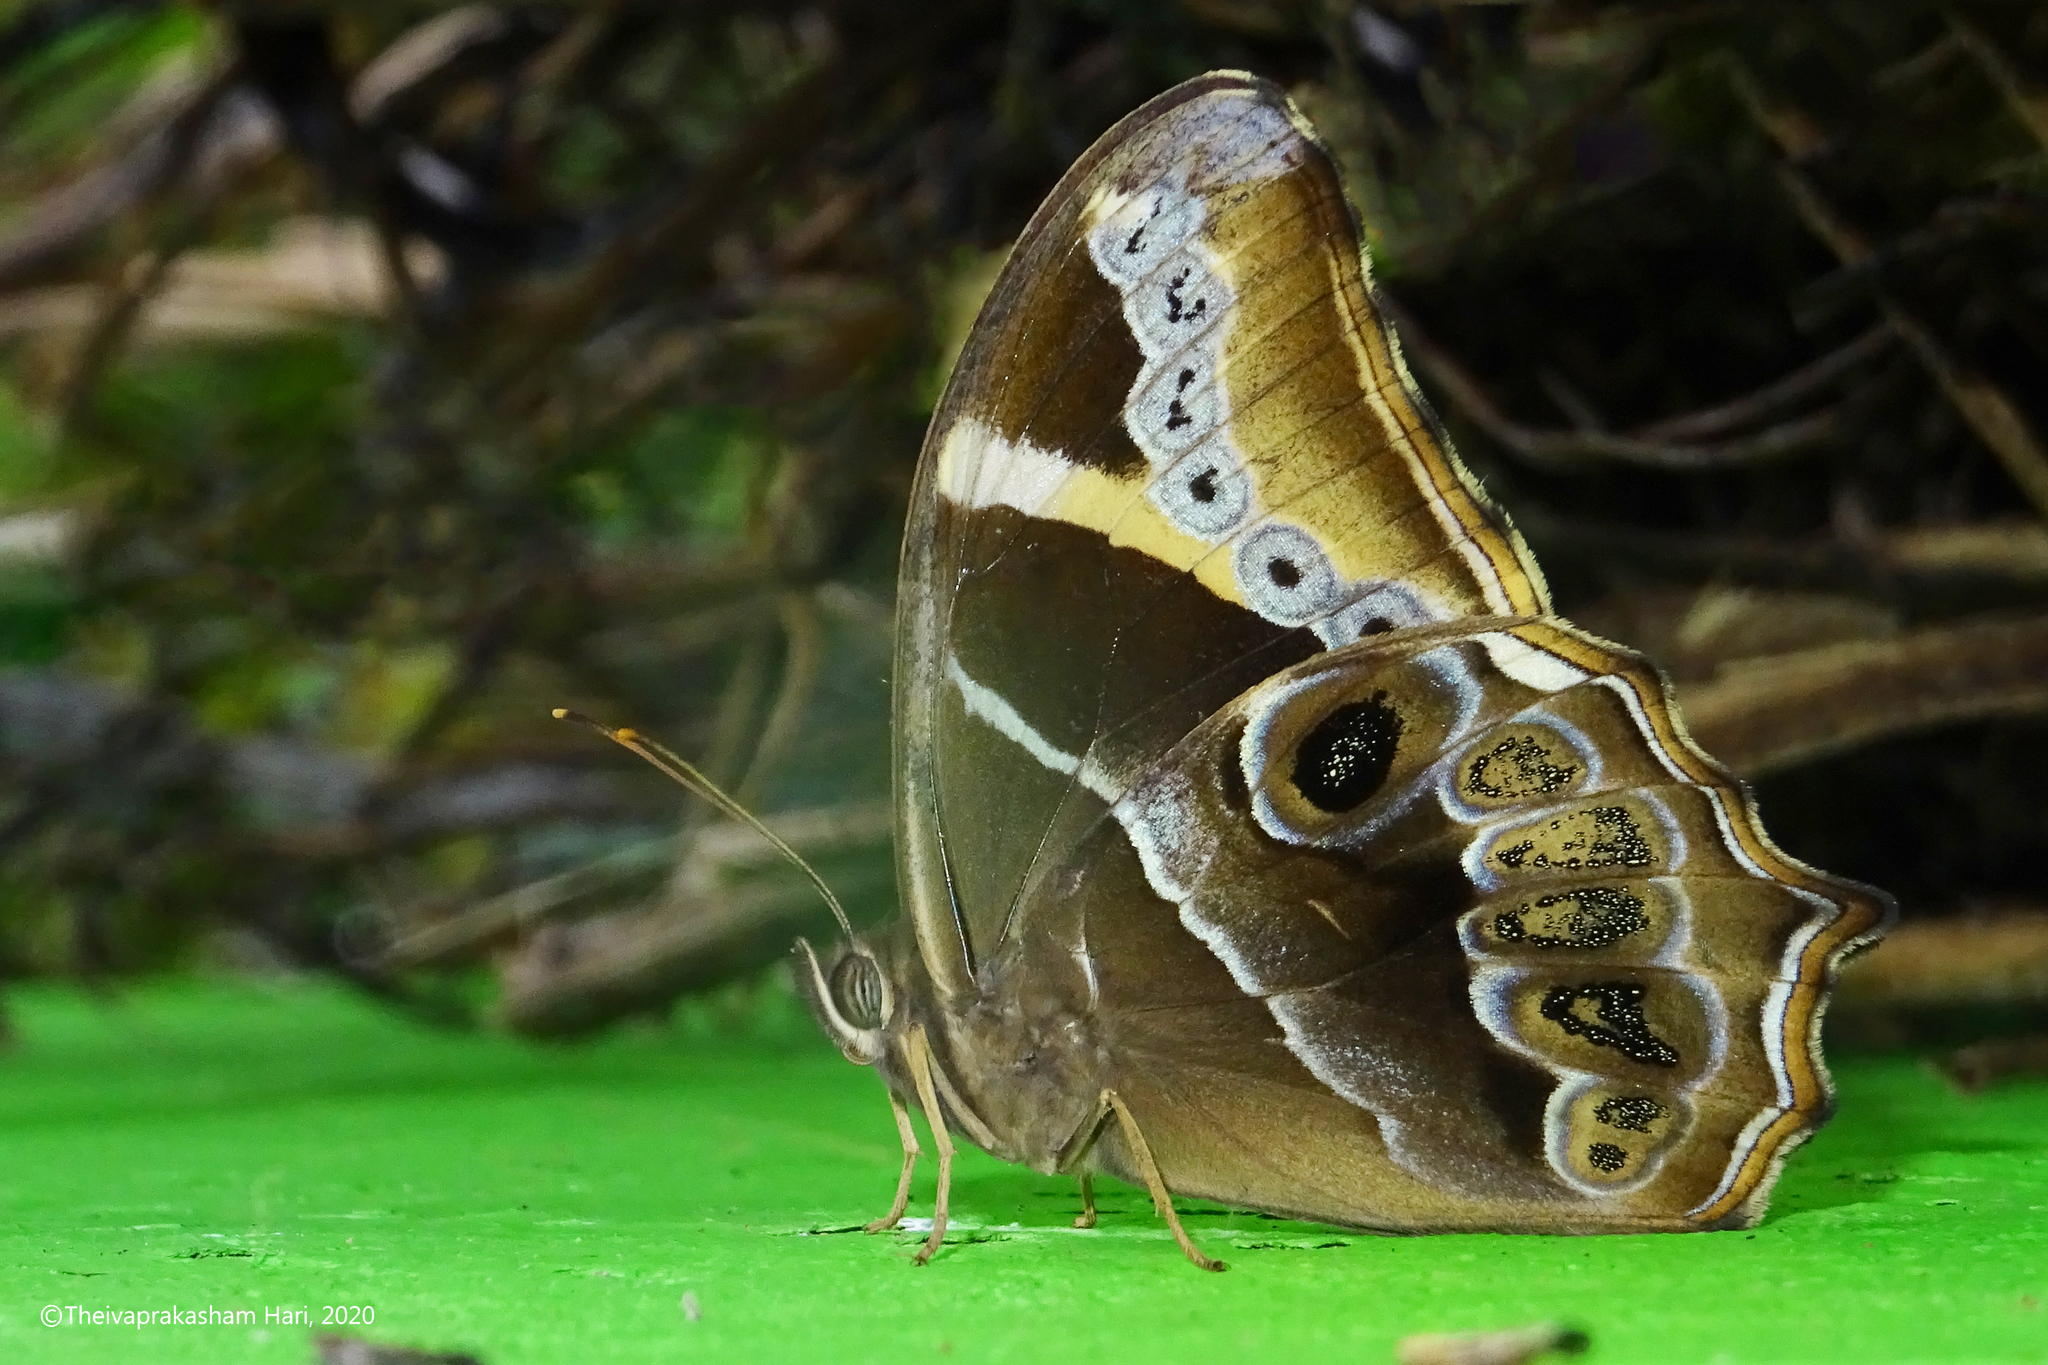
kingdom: Animalia
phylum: Arthropoda
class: Insecta
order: Lepidoptera
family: Nymphalidae
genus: Lethe
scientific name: Lethe europa
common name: Bamboo treebrown
